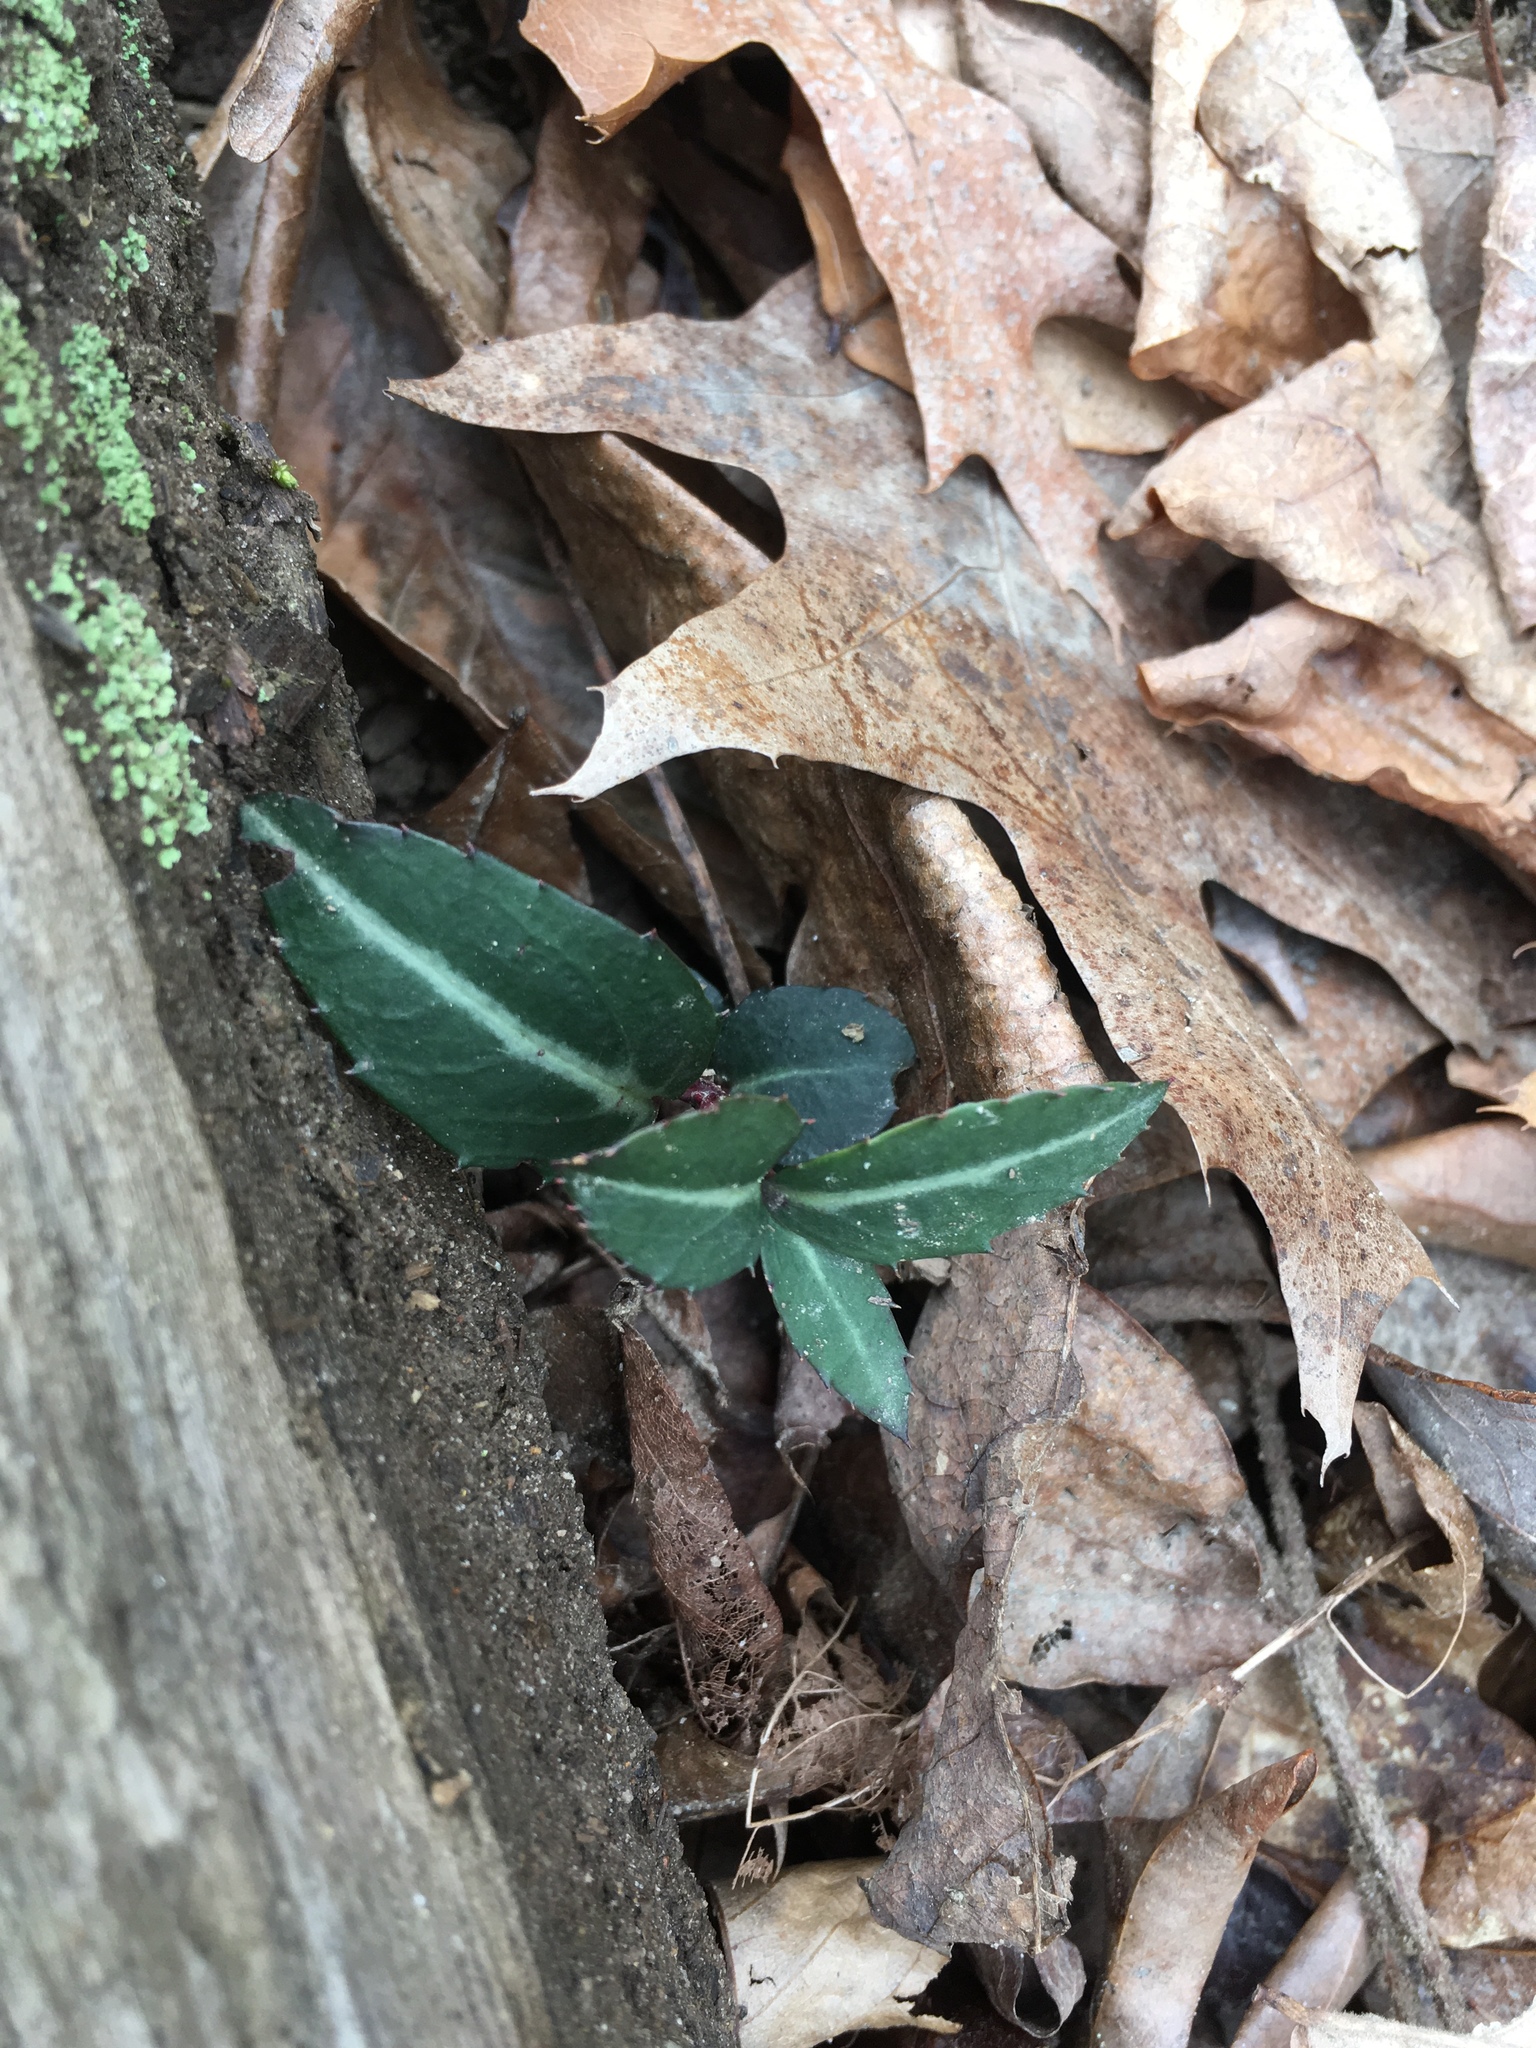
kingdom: Plantae
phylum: Tracheophyta
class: Magnoliopsida
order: Ericales
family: Ericaceae
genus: Chimaphila
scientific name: Chimaphila maculata
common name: Spotted pipsissewa
